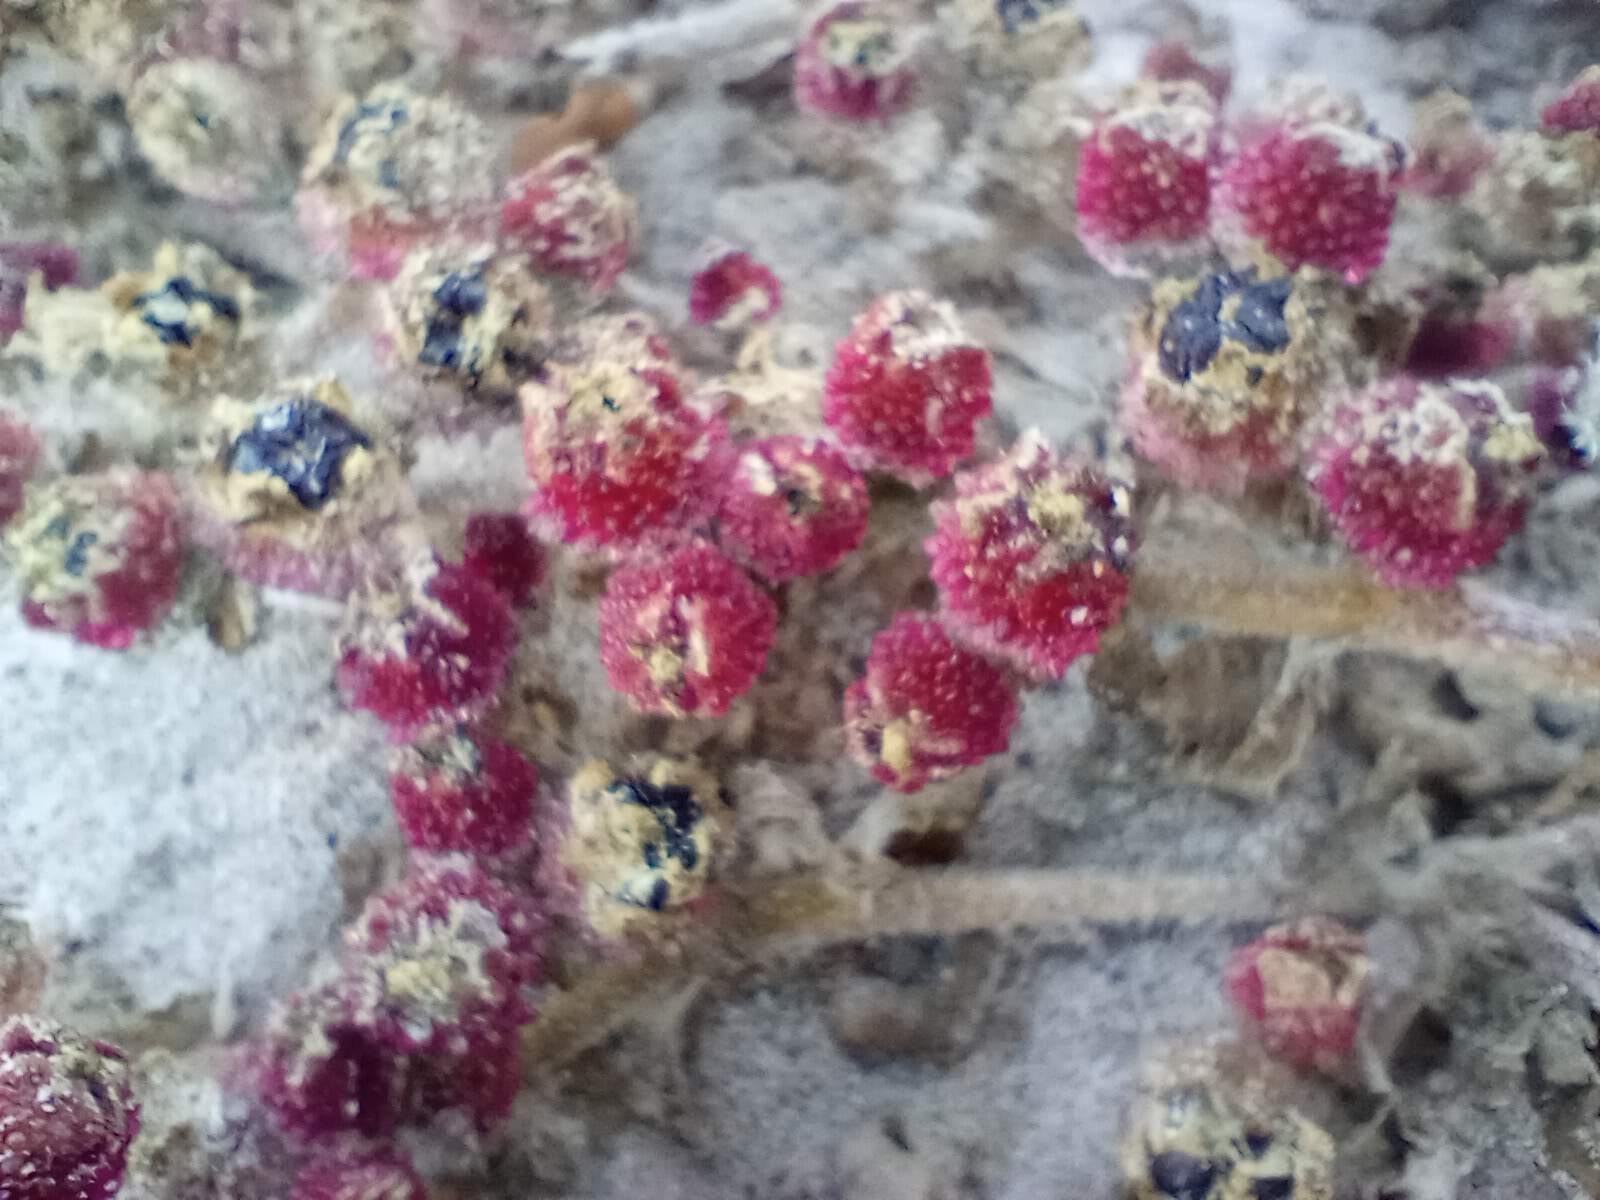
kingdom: Plantae
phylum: Tracheophyta
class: Magnoliopsida
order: Caryophyllales
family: Aizoaceae
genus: Mesembryanthemum
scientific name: Mesembryanthemum crystallinum
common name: Common iceplant
